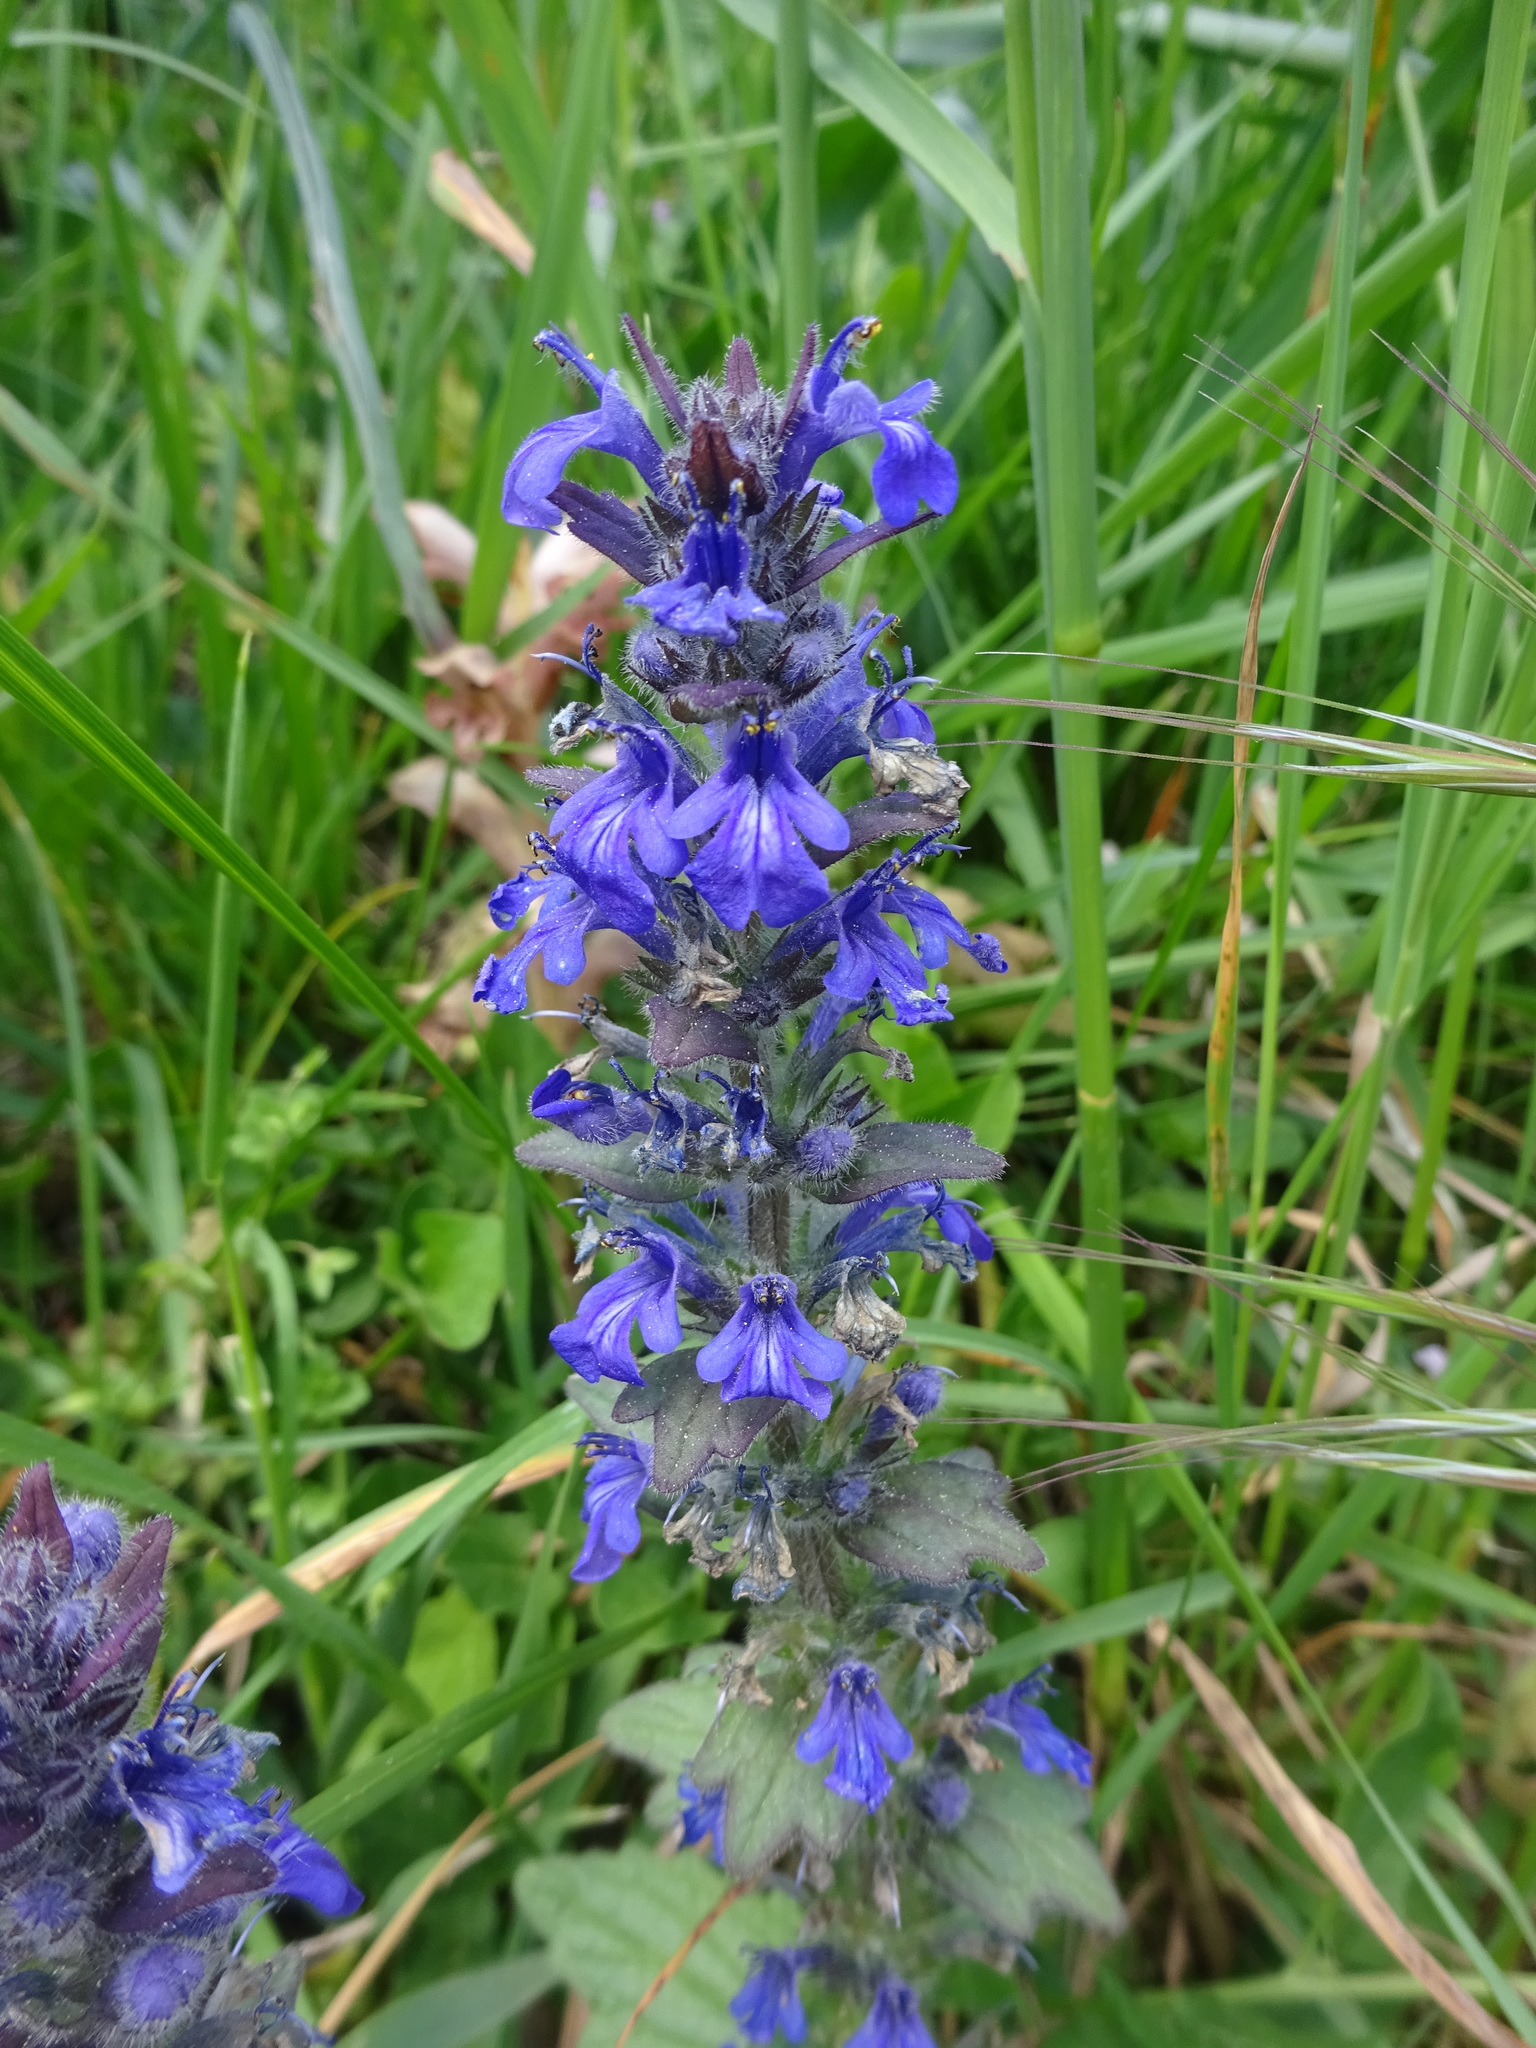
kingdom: Plantae
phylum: Tracheophyta
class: Magnoliopsida
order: Lamiales
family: Lamiaceae
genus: Ajuga
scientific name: Ajuga reptans
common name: Bugle
